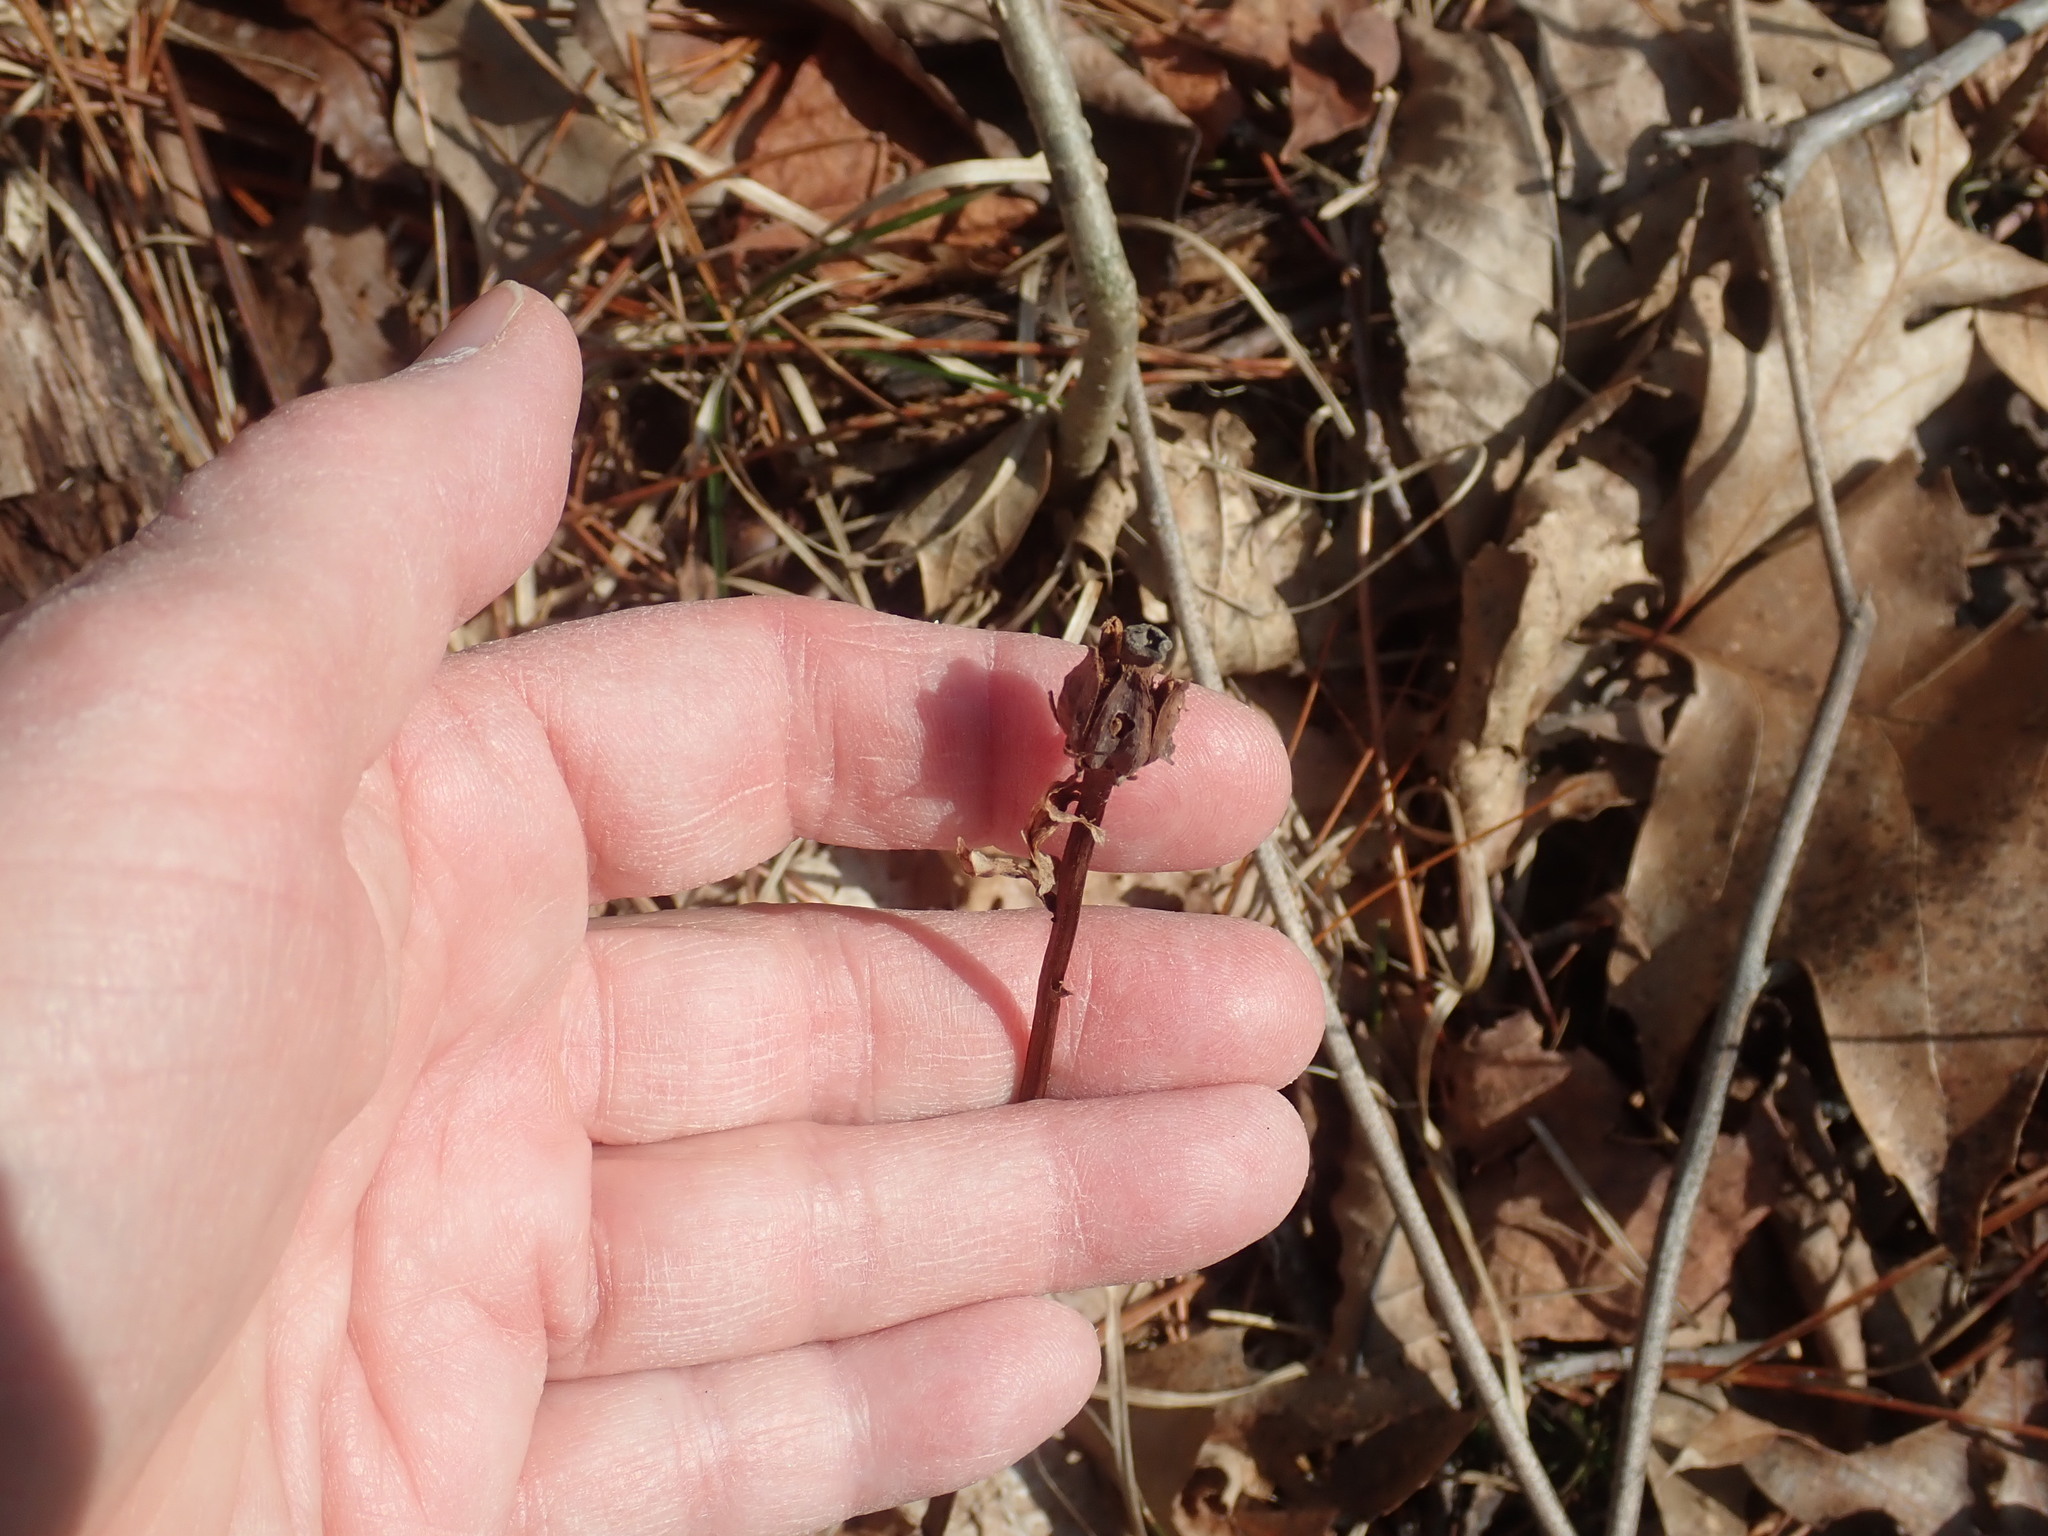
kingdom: Plantae
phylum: Tracheophyta
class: Magnoliopsida
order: Ericales
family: Ericaceae
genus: Monotropa
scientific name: Monotropa uniflora
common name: Convulsion root
